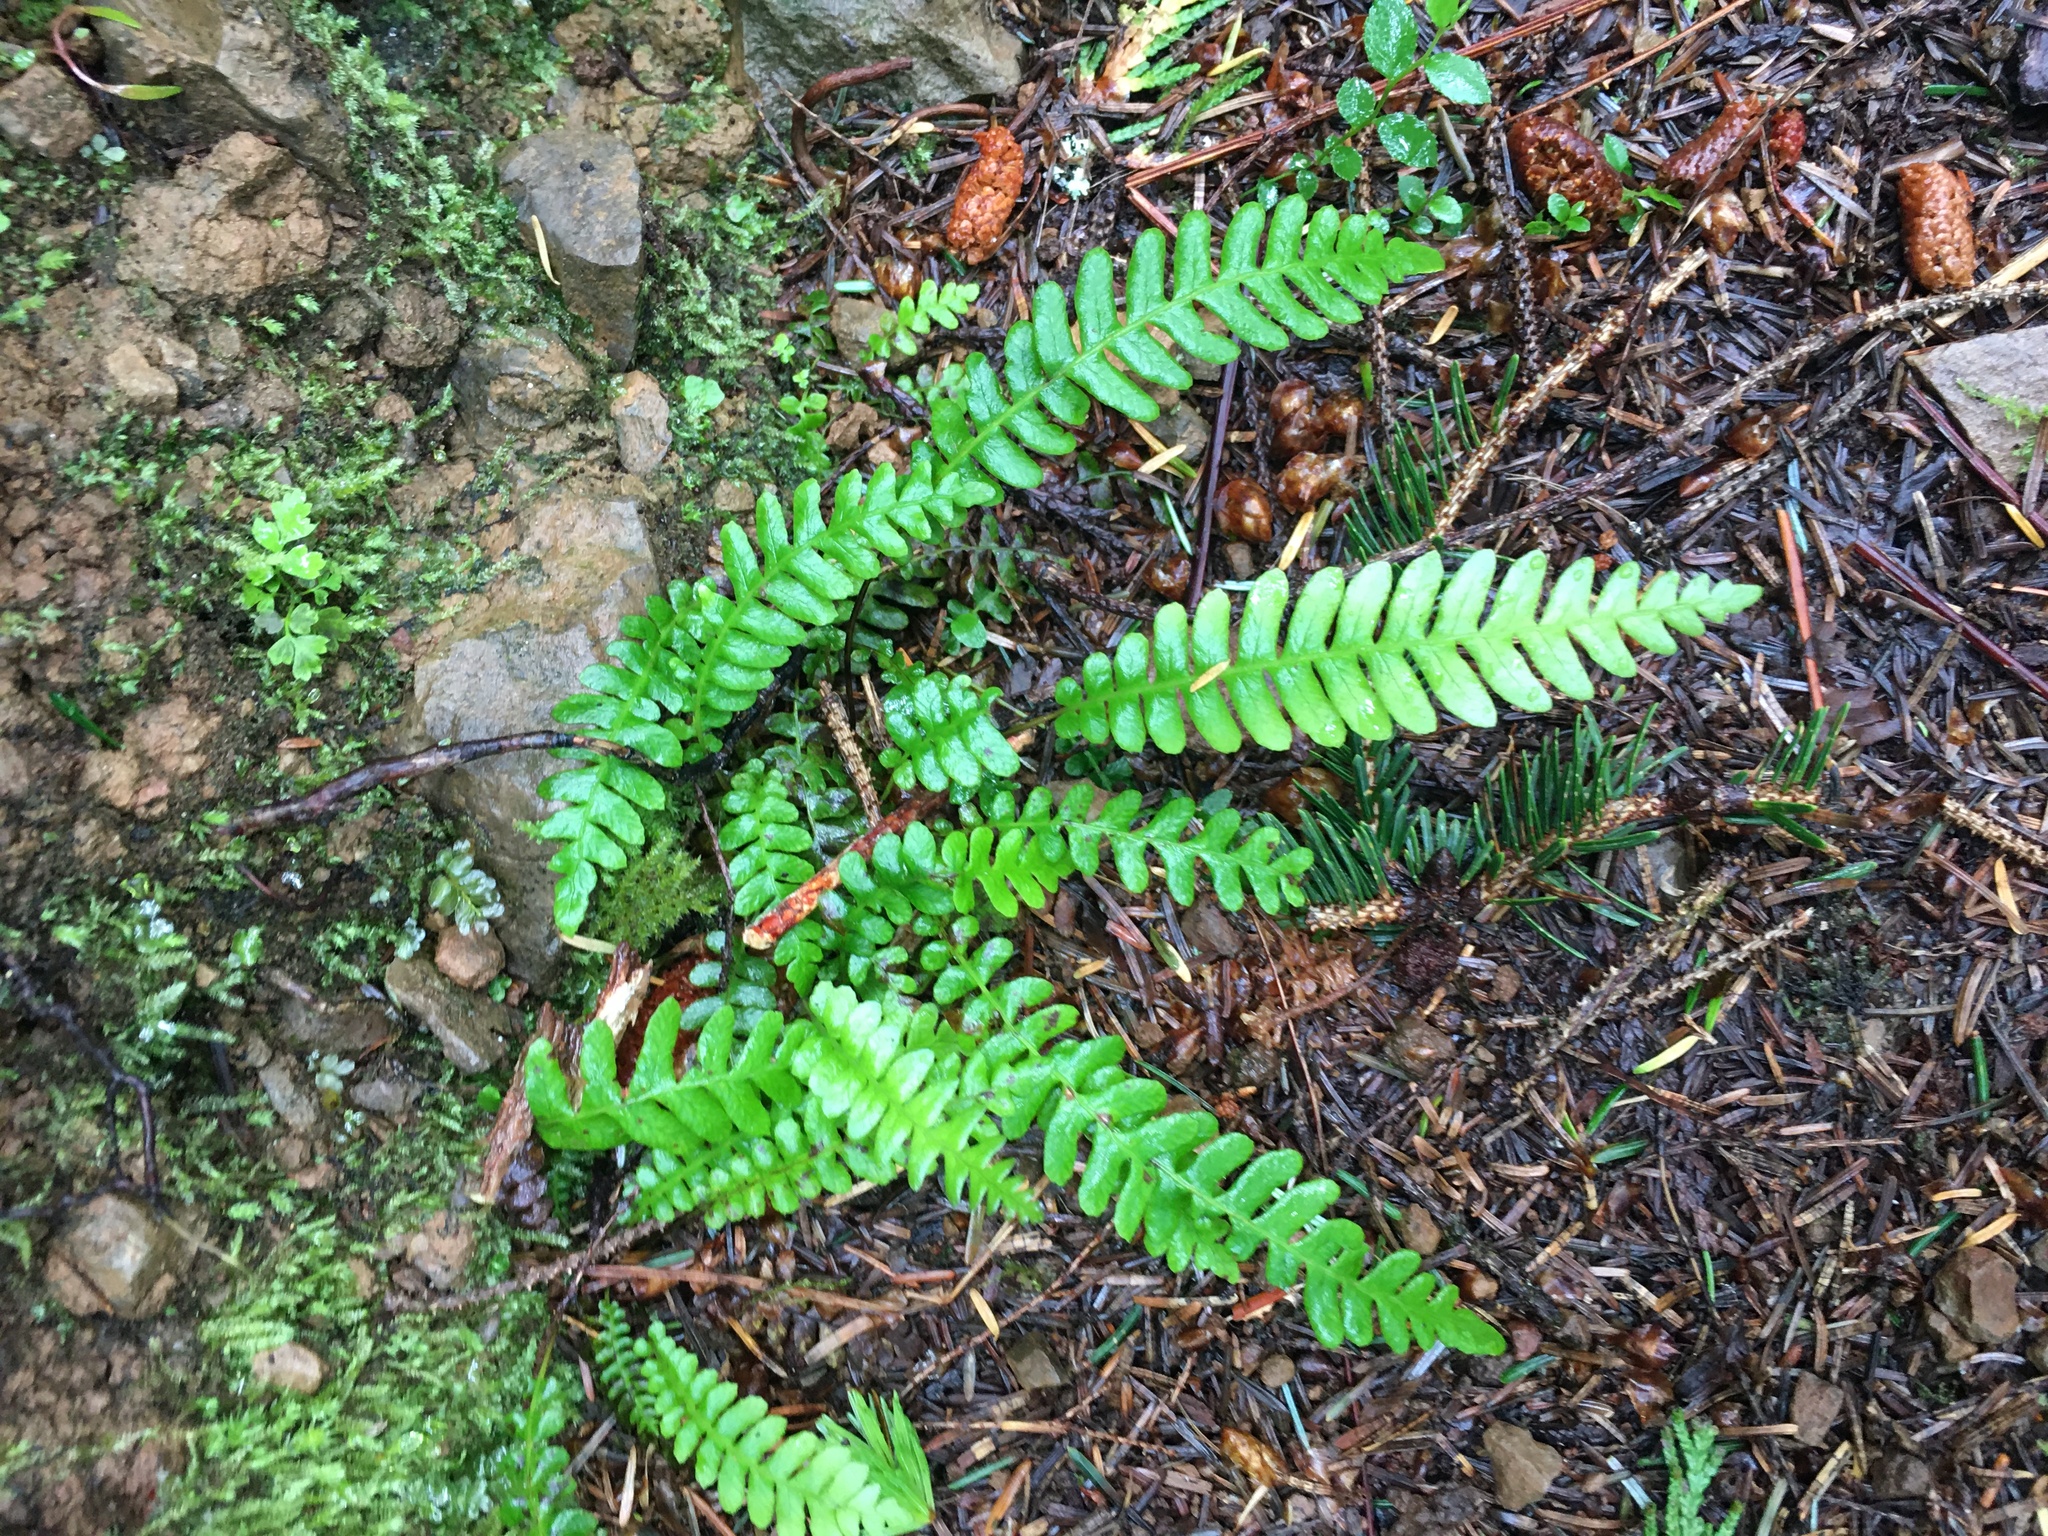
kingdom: Plantae
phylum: Tracheophyta
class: Polypodiopsida
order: Polypodiales
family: Blechnaceae
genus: Struthiopteris
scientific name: Struthiopteris spicant
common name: Deer fern
